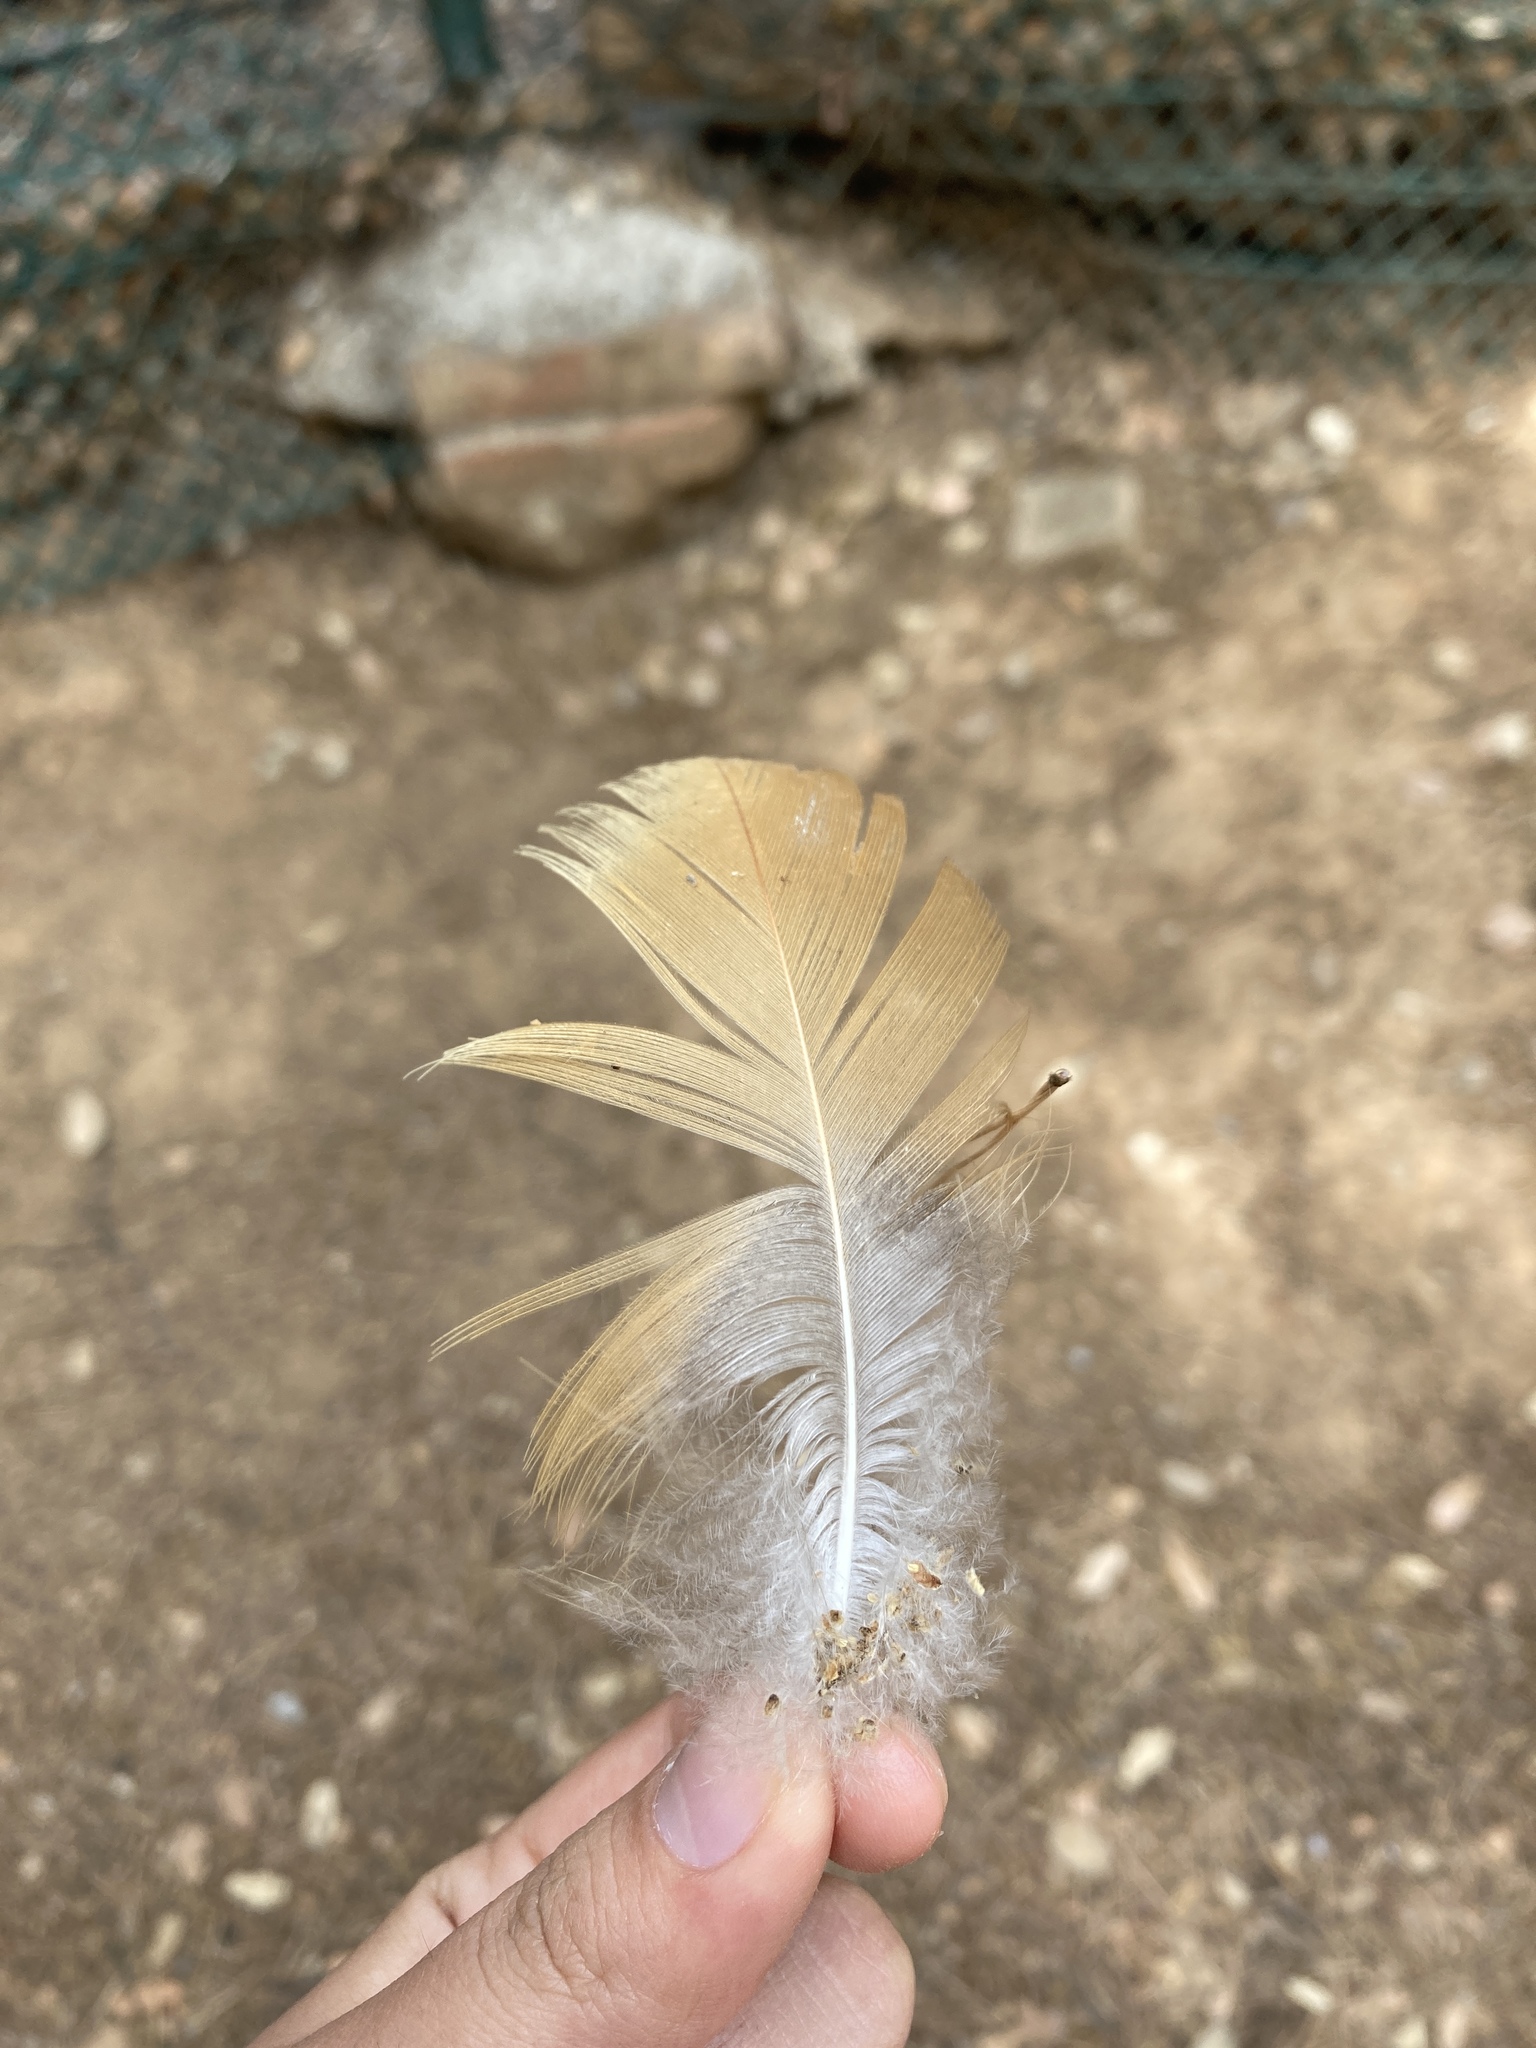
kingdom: Animalia
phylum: Chordata
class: Aves
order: Anseriformes
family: Anatidae
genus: Tadorna
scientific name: Tadorna ferruginea
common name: Ruddy shelduck
